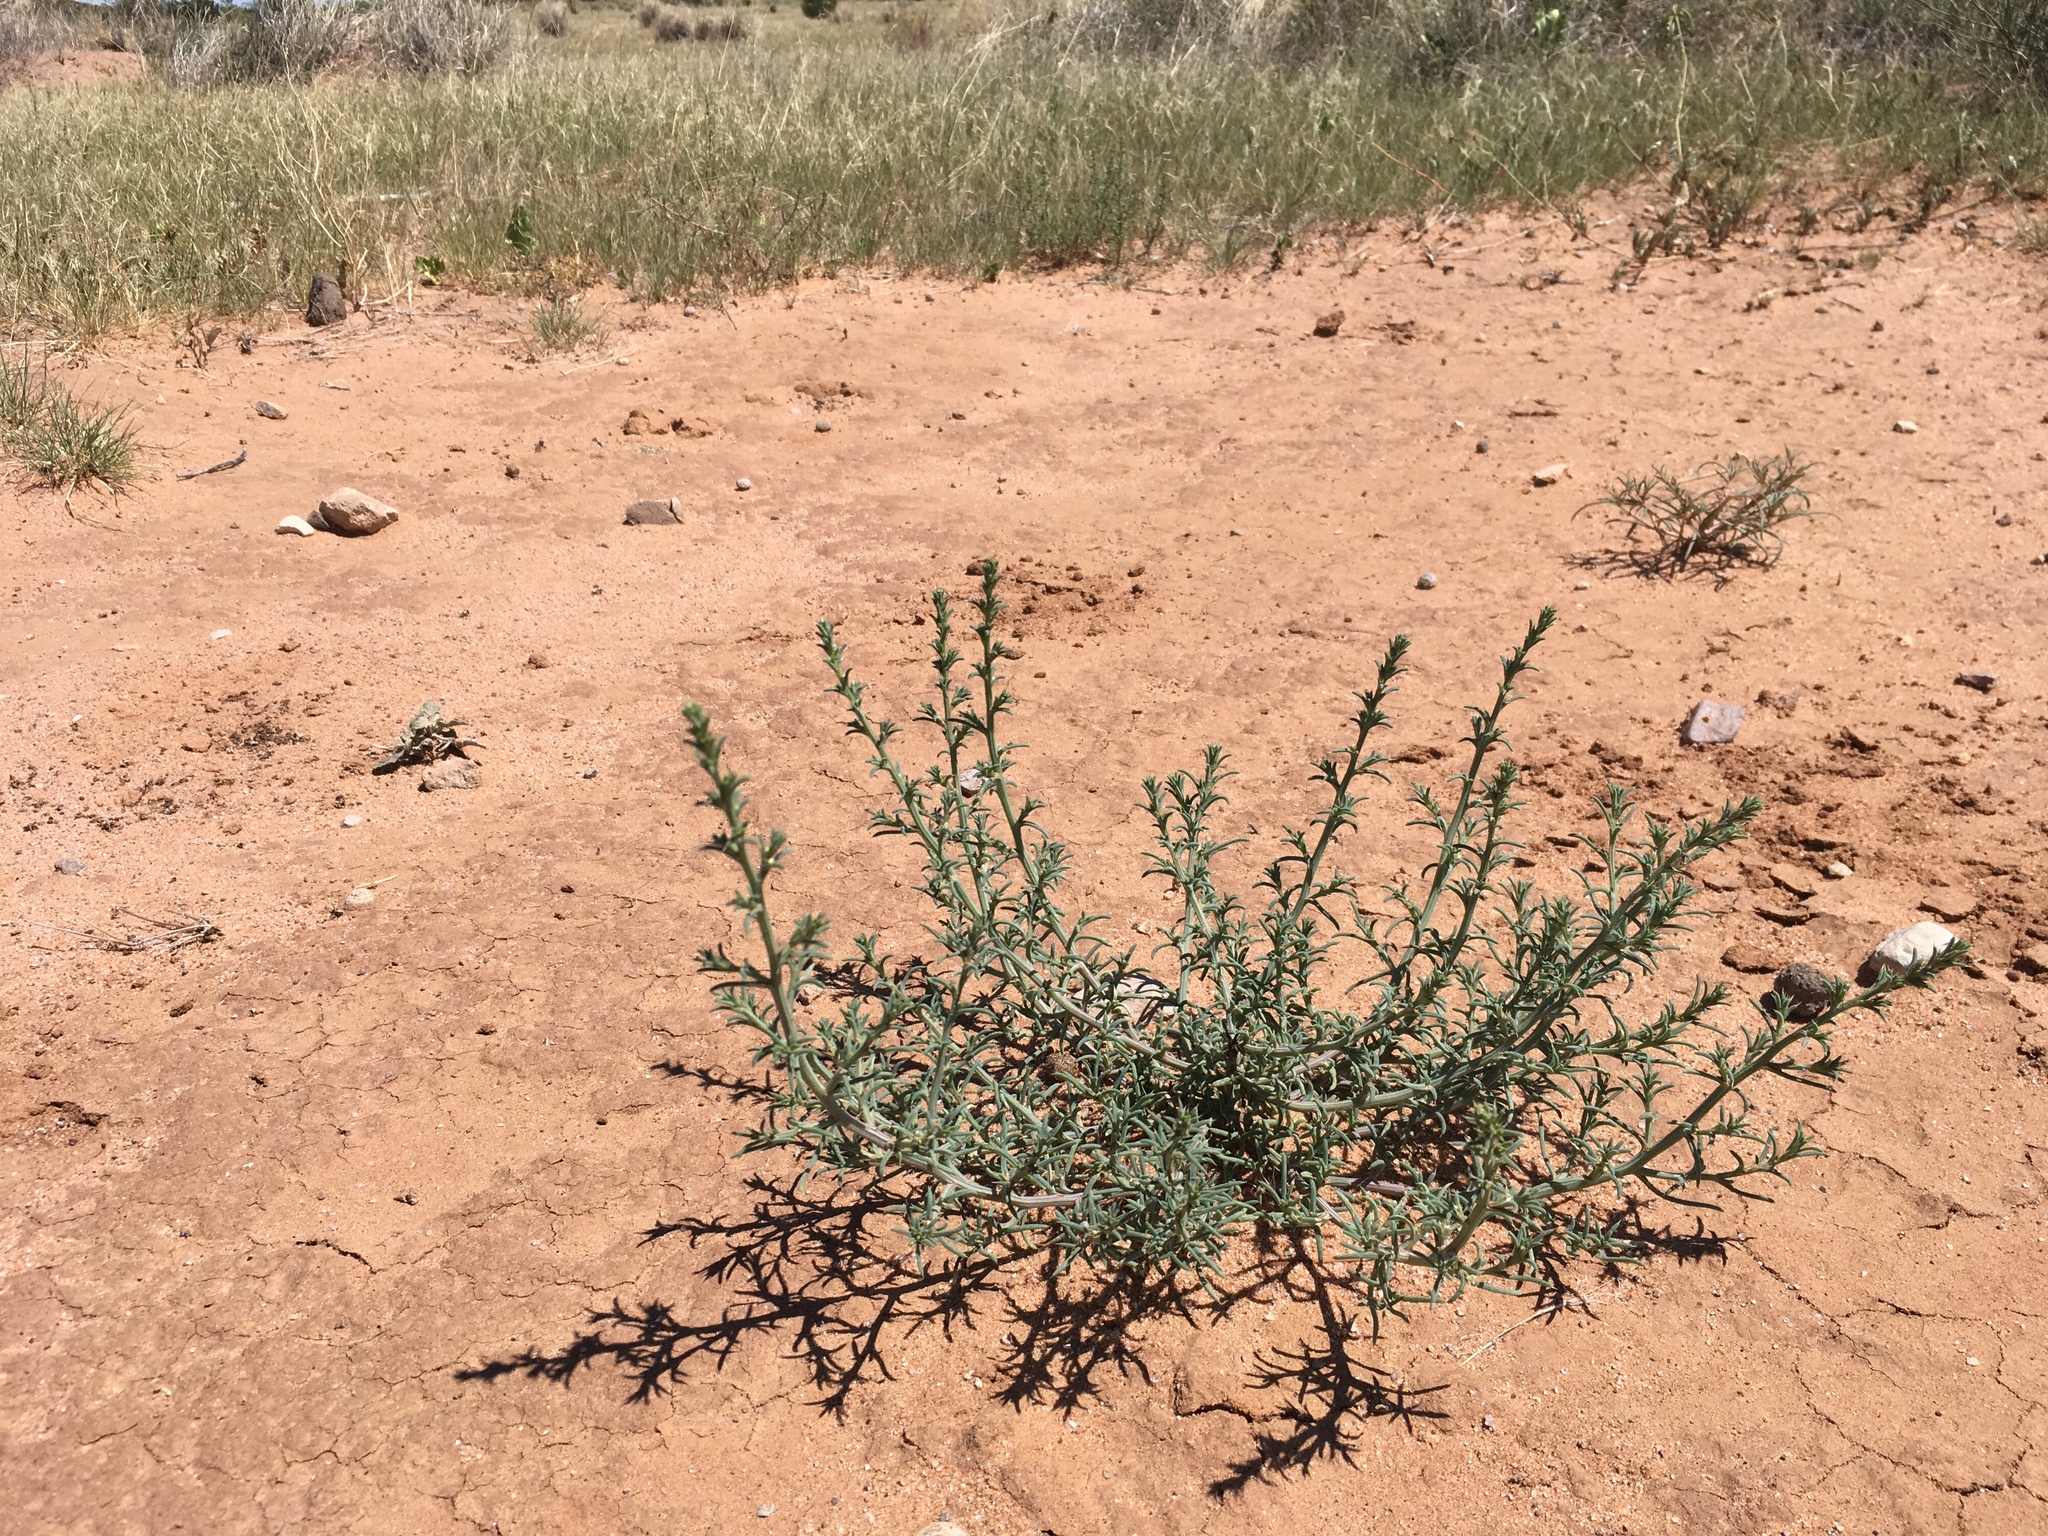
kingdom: Plantae
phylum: Tracheophyta
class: Magnoliopsida
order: Caryophyllales
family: Amaranthaceae
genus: Salsola
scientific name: Salsola tragus
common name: Prickly russian thistle
